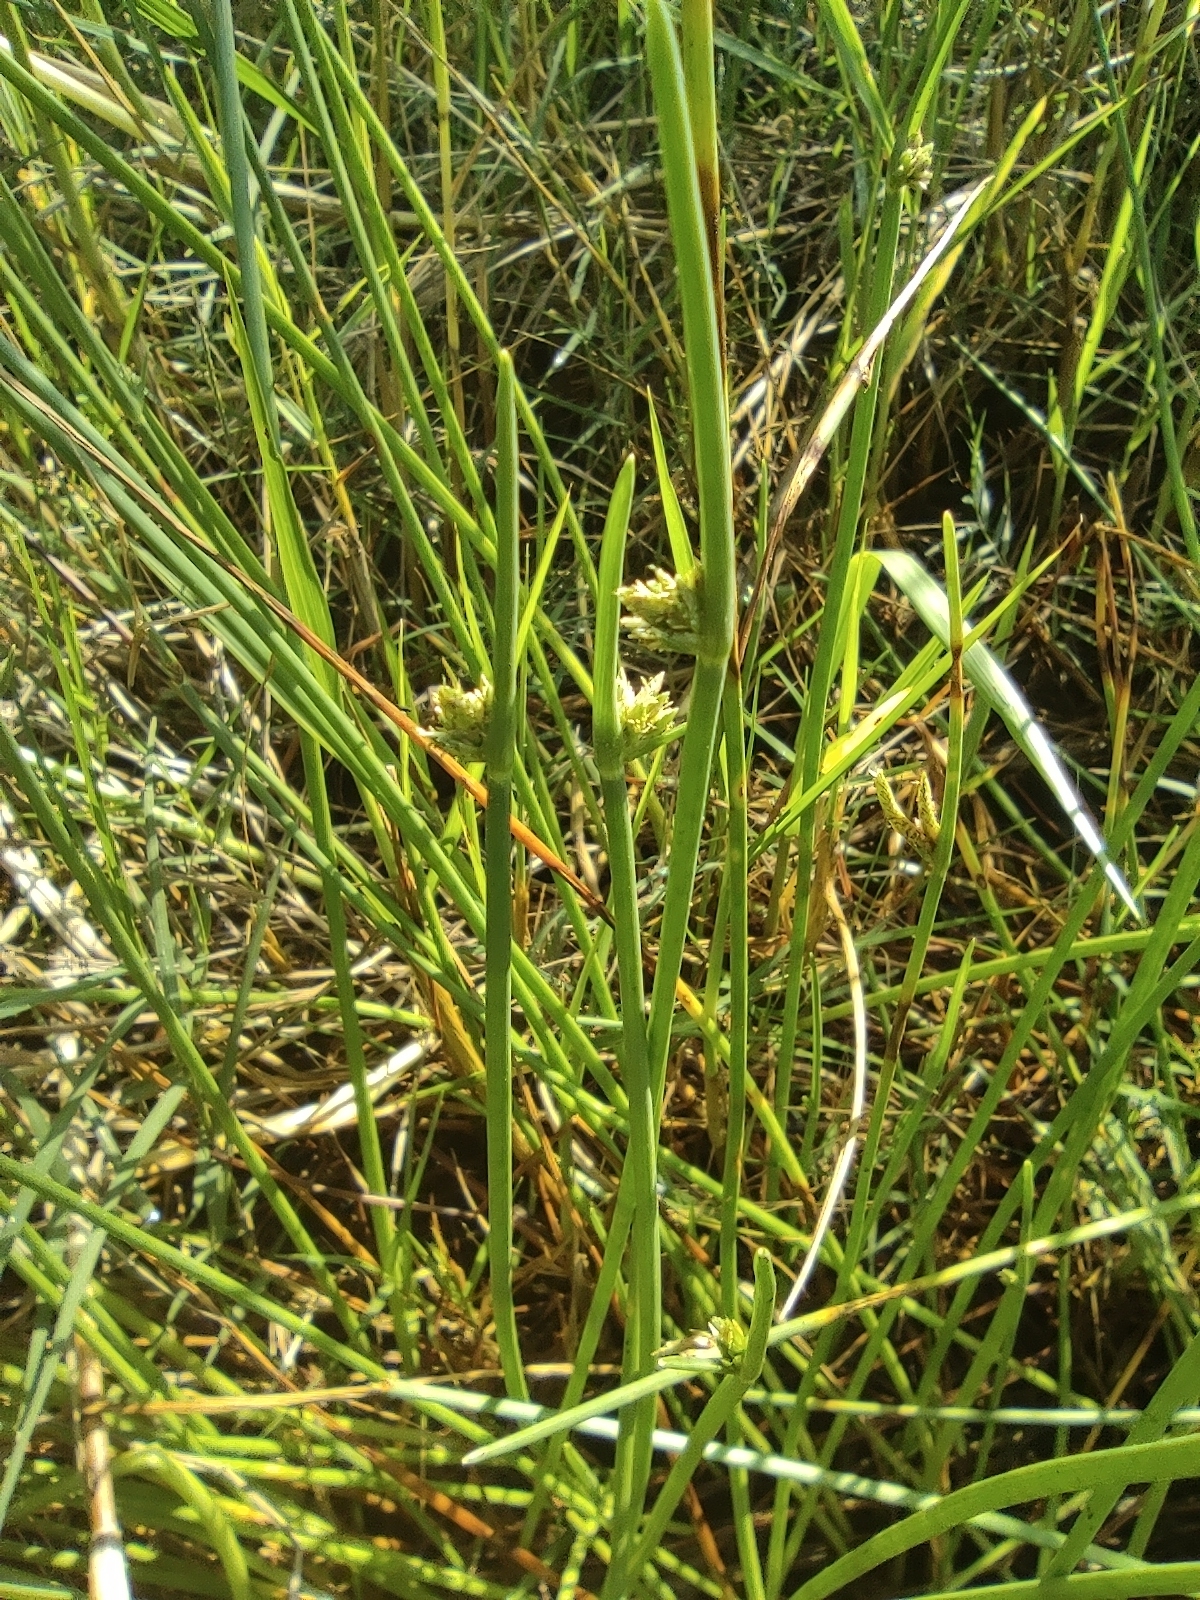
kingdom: Plantae
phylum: Tracheophyta
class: Liliopsida
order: Poales
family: Cyperaceae
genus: Cyperus
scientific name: Cyperus laevigatus
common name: Smooth flat sedge
